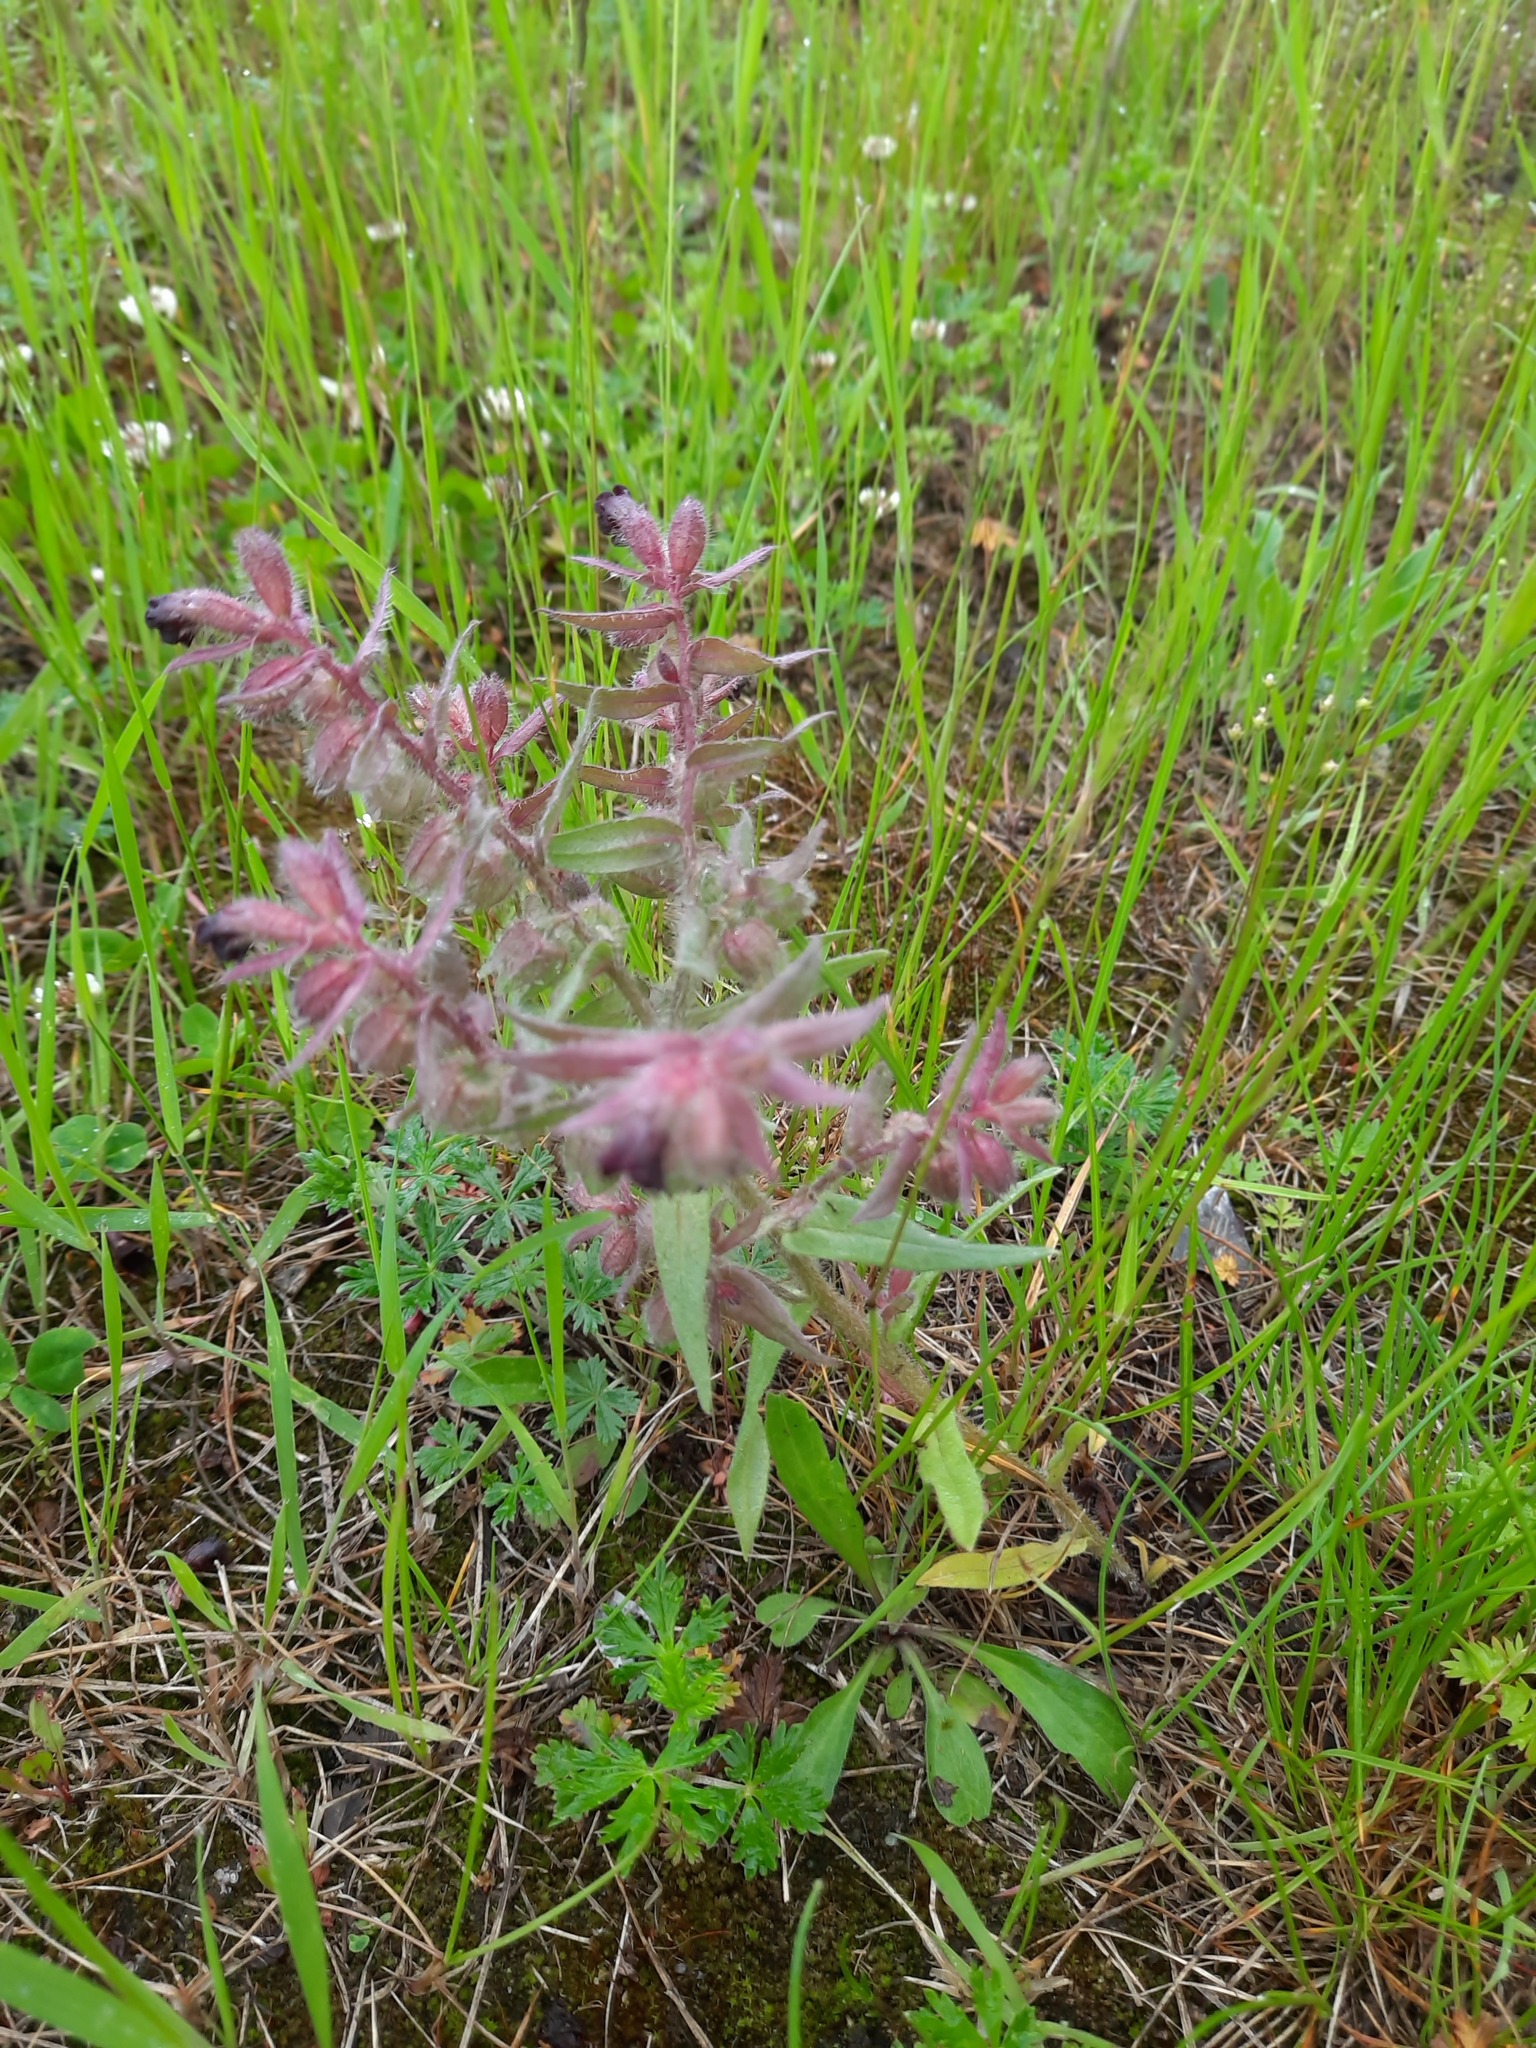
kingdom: Plantae
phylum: Tracheophyta
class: Magnoliopsida
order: Boraginales
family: Boraginaceae
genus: Nonea
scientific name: Nonea pulla
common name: Brown nonea
